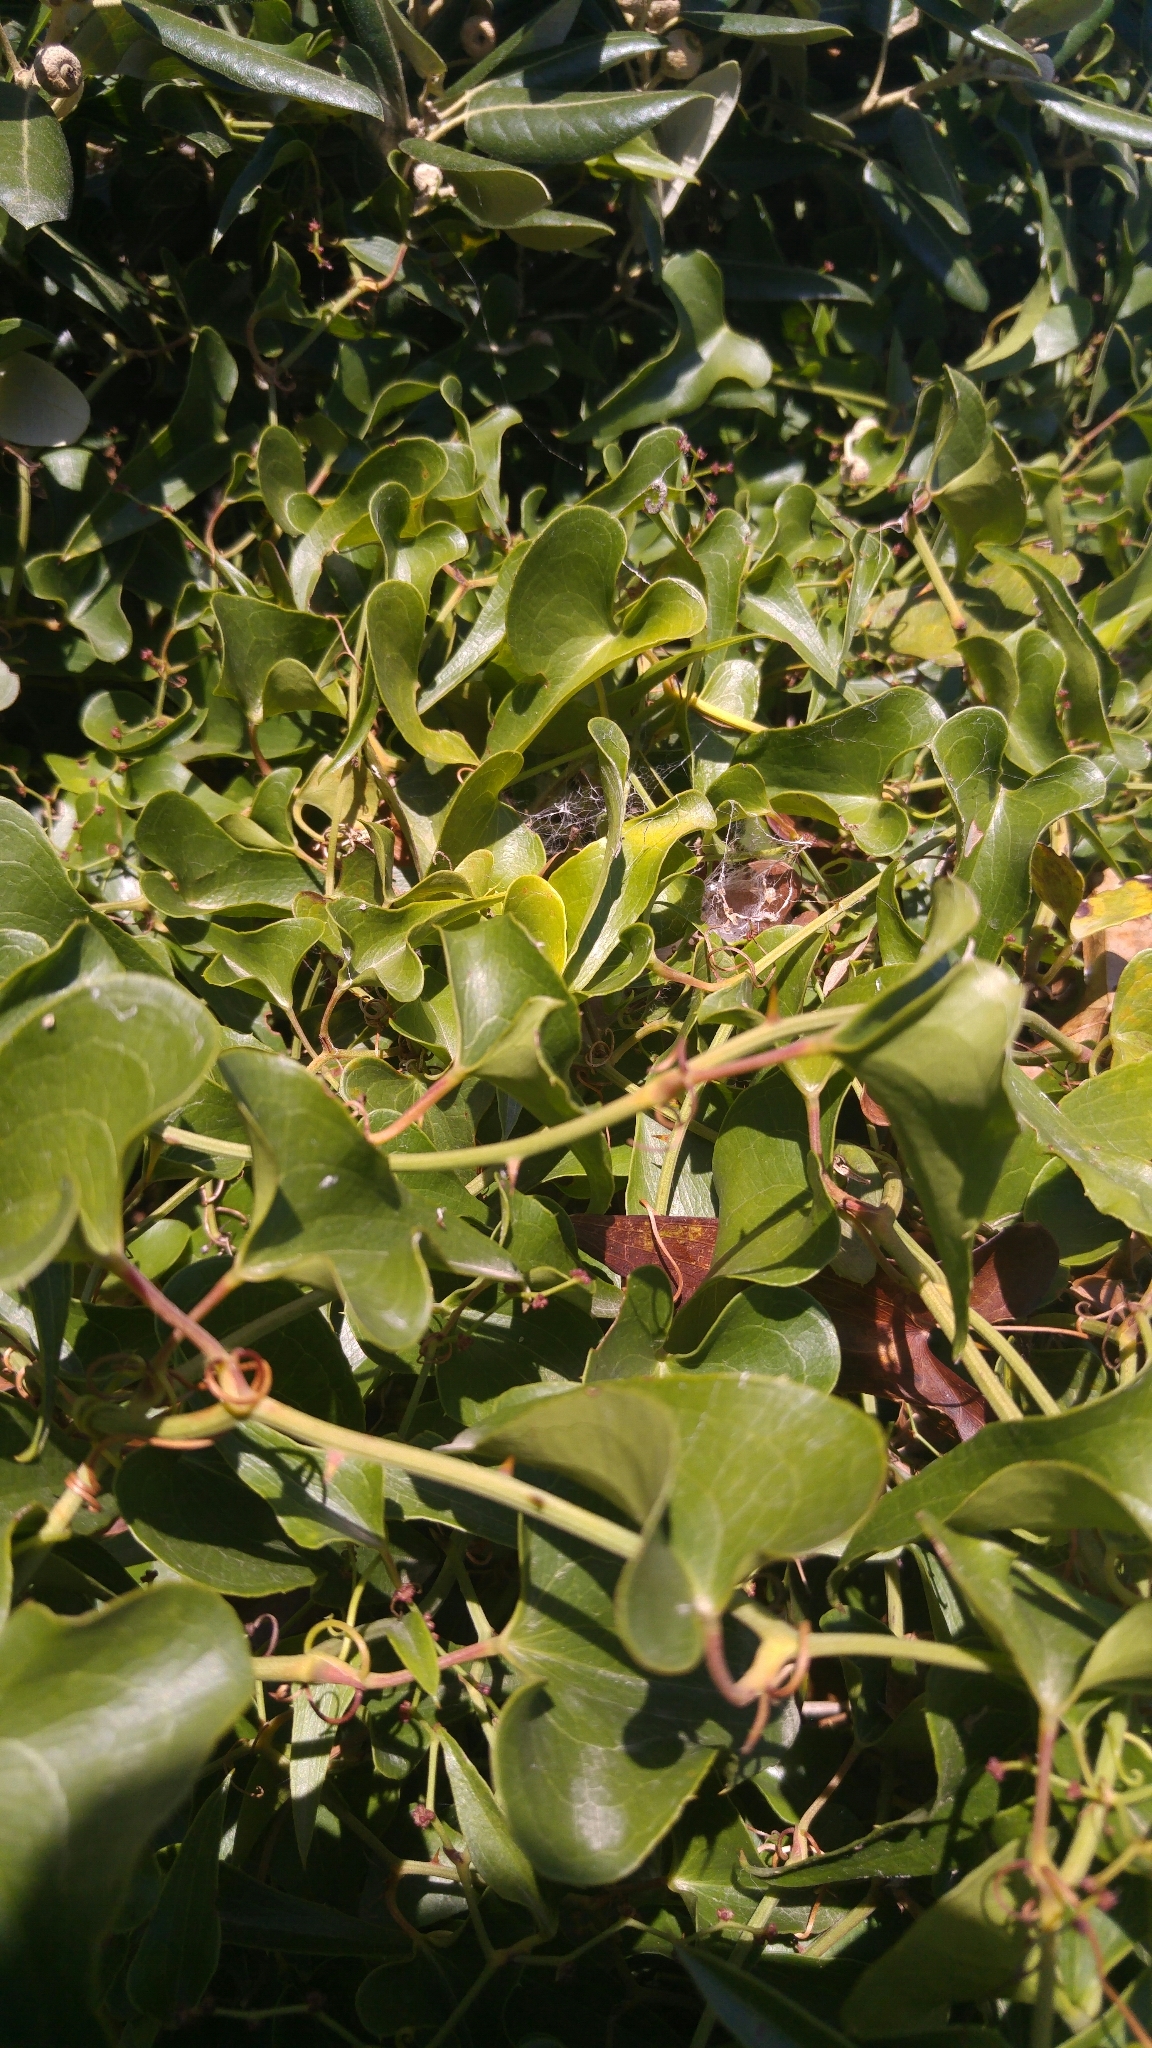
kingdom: Plantae
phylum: Tracheophyta
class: Liliopsida
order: Liliales
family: Smilacaceae
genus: Smilax
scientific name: Smilax aspera
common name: Common smilax
